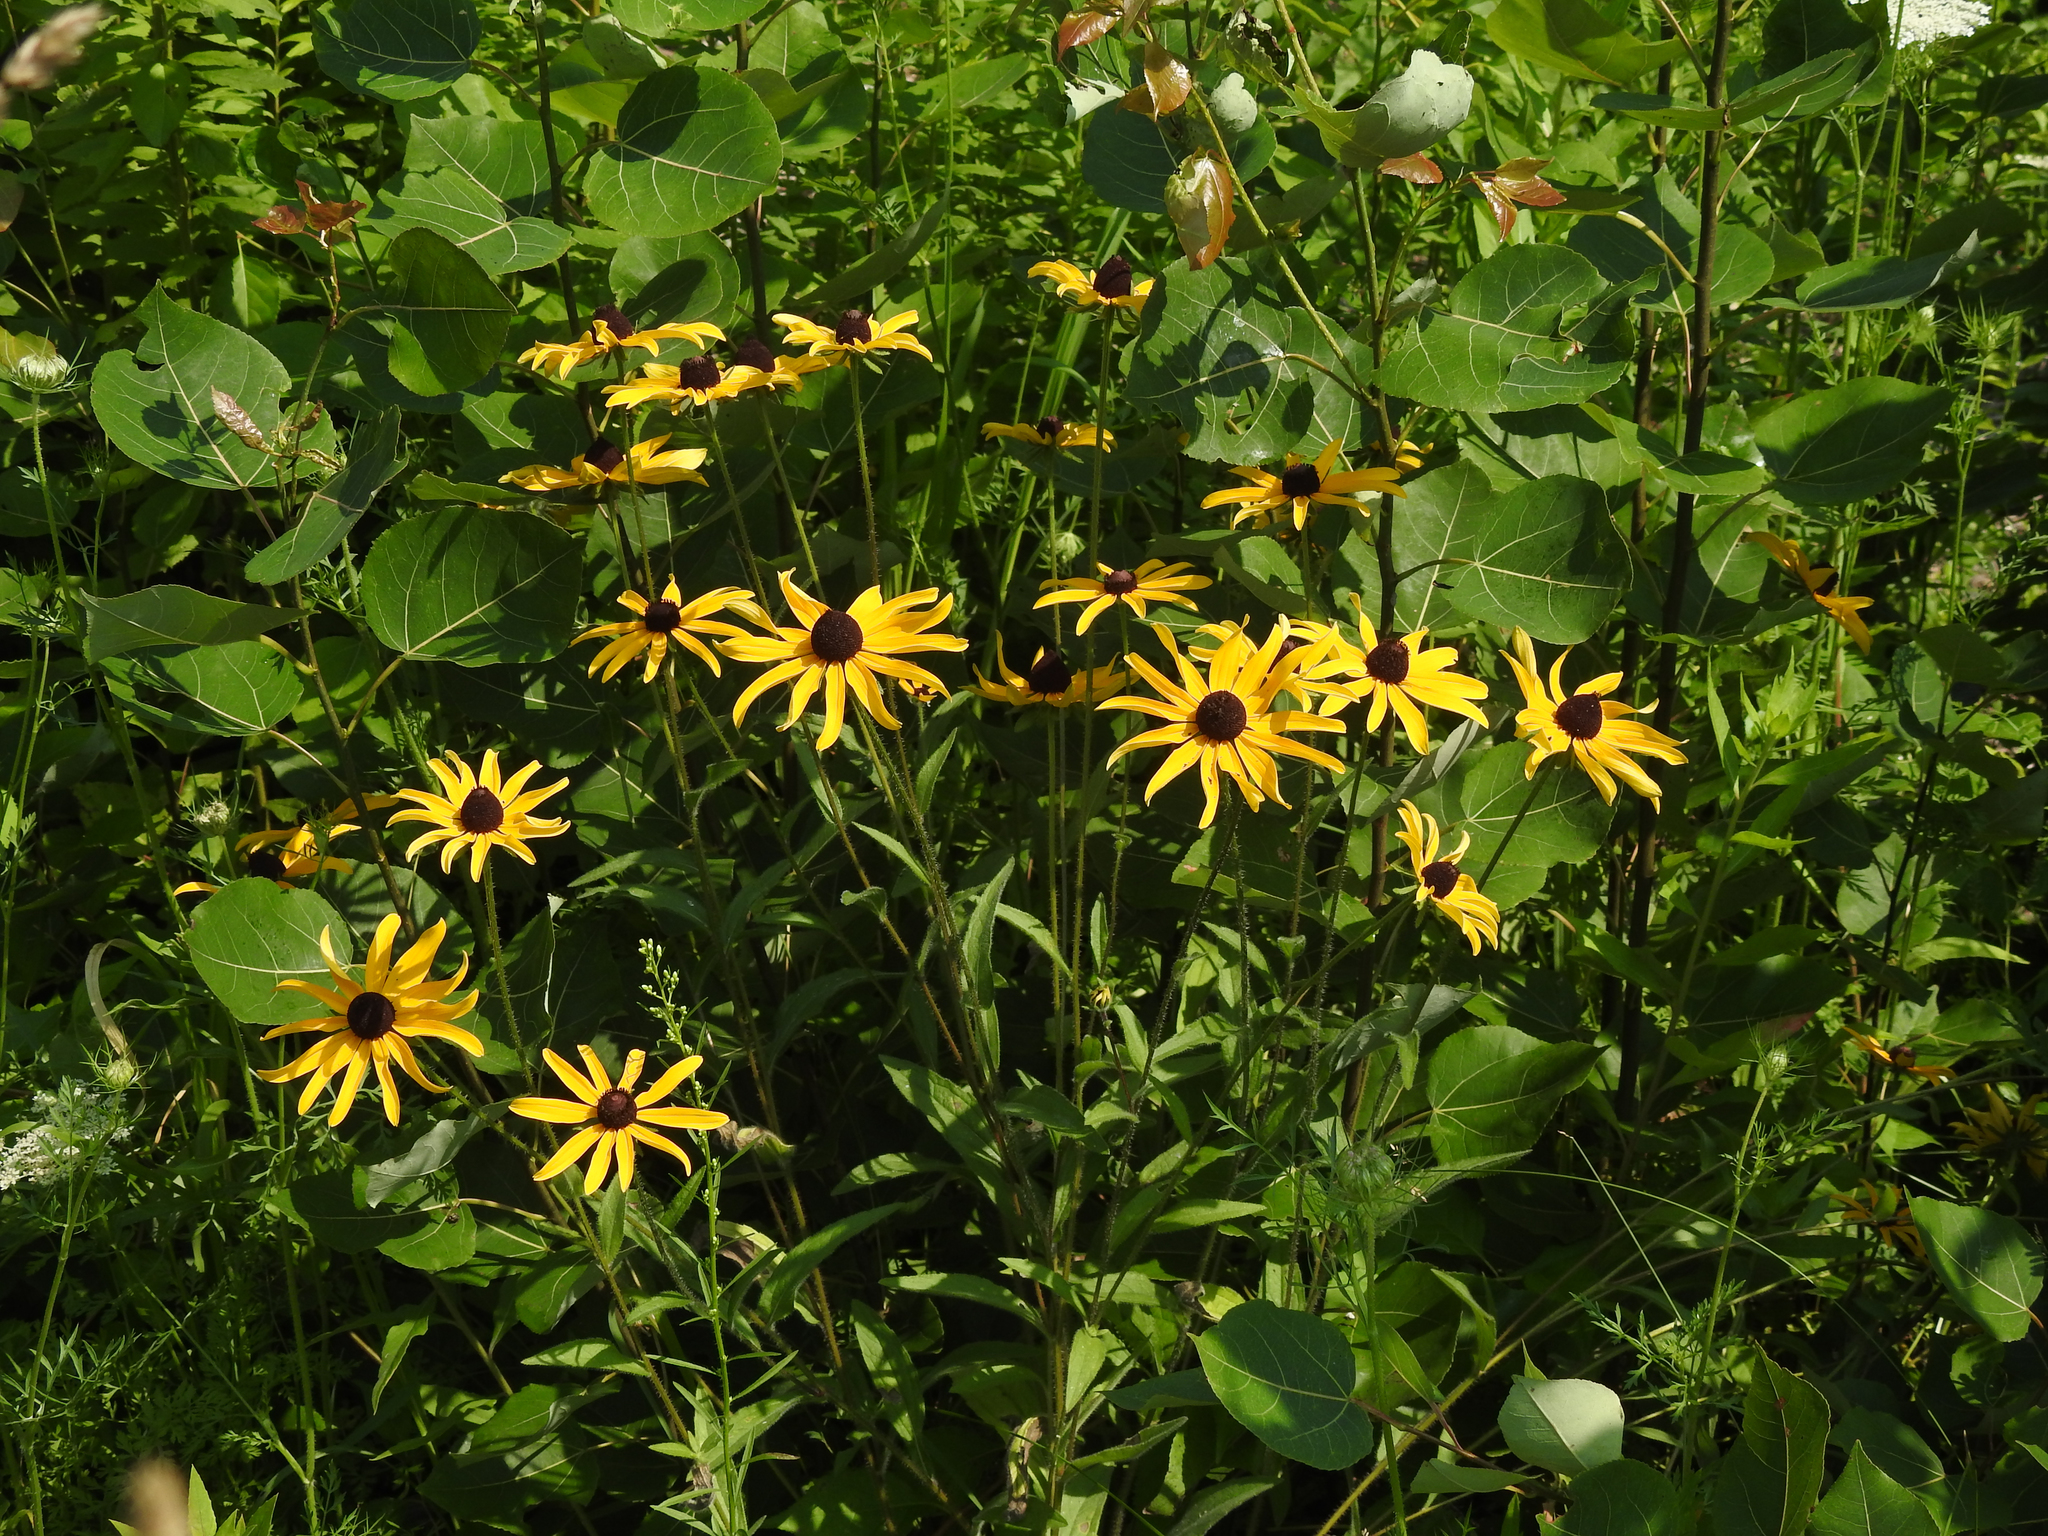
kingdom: Plantae
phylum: Tracheophyta
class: Magnoliopsida
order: Asterales
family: Asteraceae
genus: Rudbeckia
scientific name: Rudbeckia hirta
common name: Black-eyed-susan
